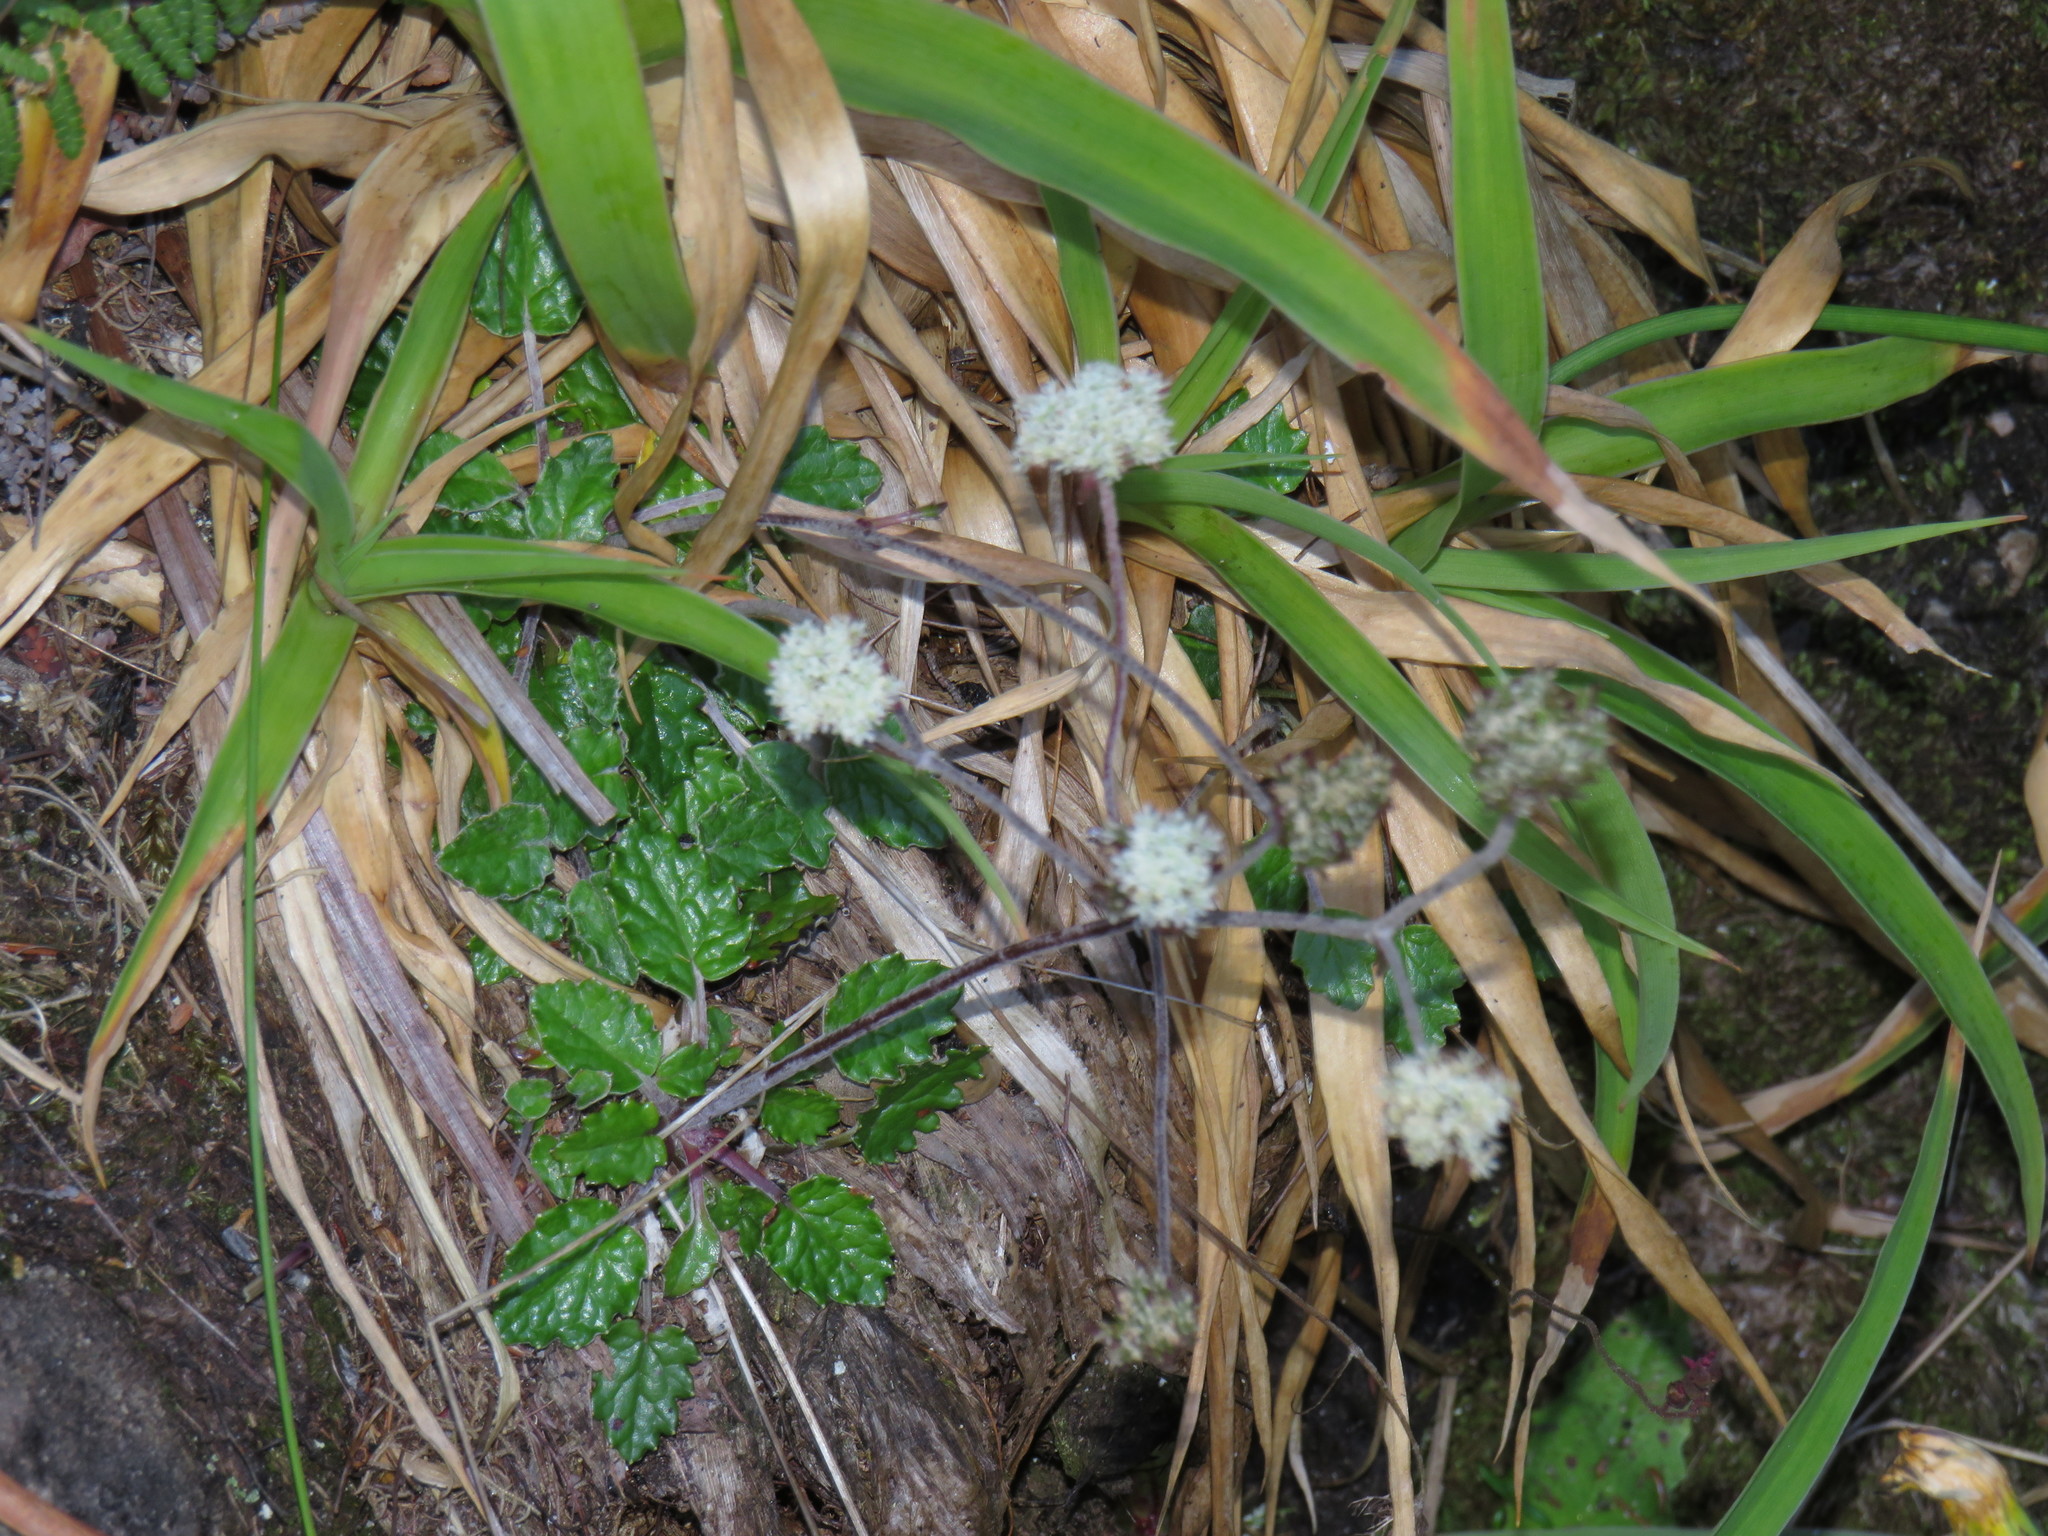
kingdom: Plantae
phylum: Tracheophyta
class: Magnoliopsida
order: Apiales
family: Apiaceae
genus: Hermas
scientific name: Hermas capitata
